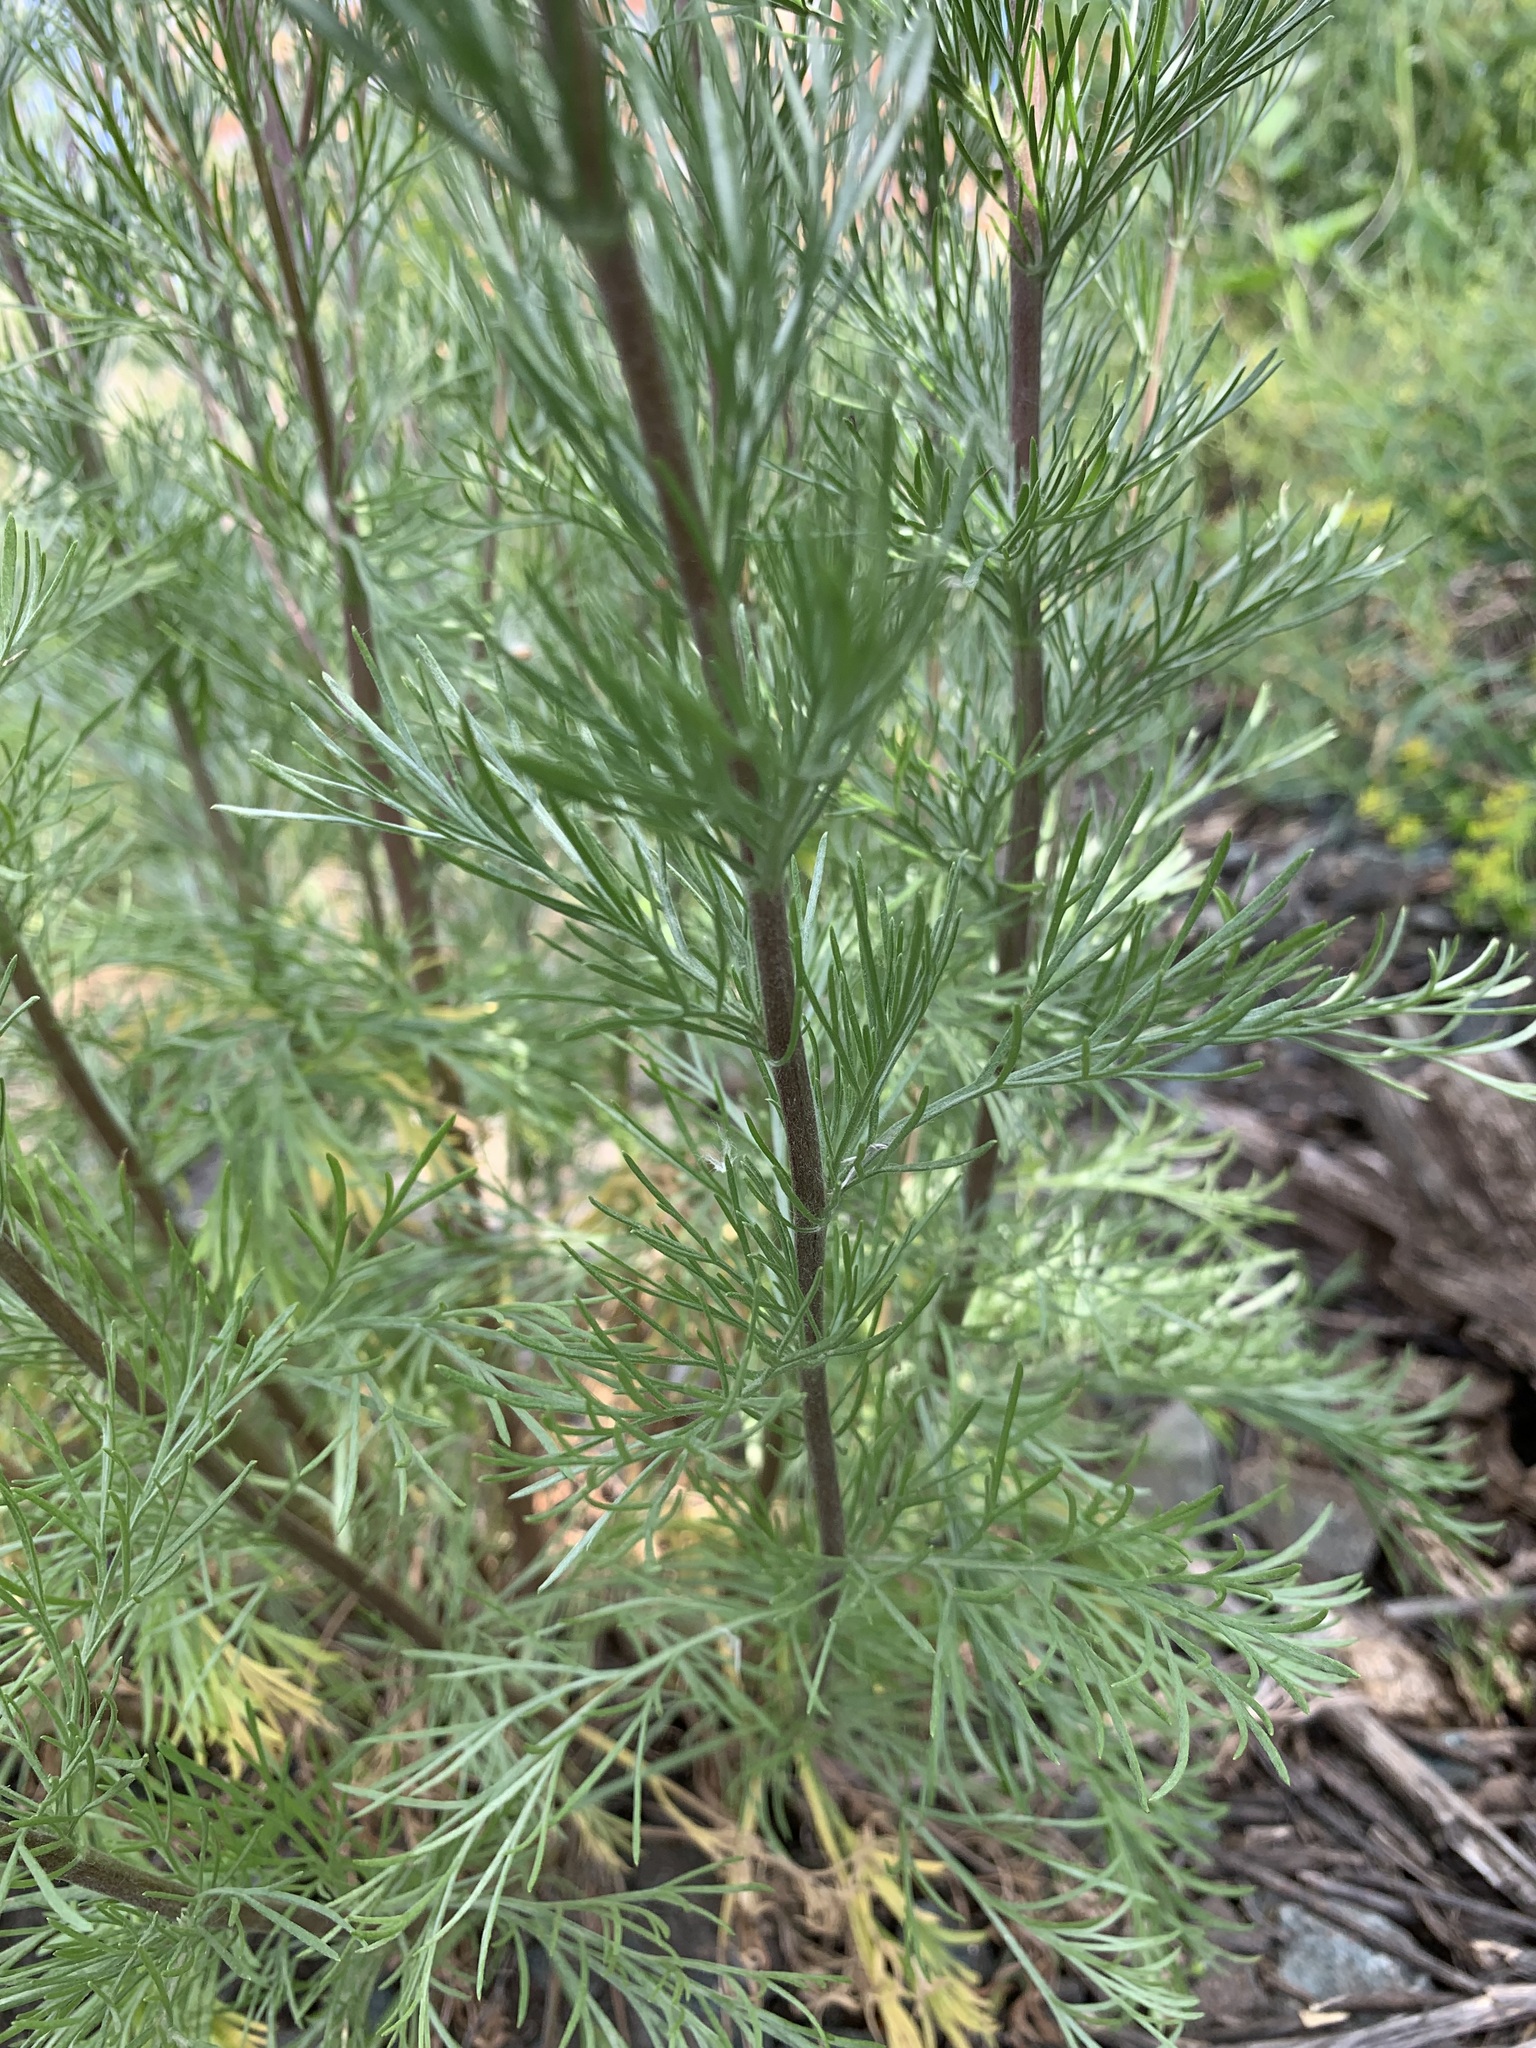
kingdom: Plantae
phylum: Tracheophyta
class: Magnoliopsida
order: Asterales
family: Asteraceae
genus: Artemisia
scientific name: Artemisia campestris
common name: Field wormwood
